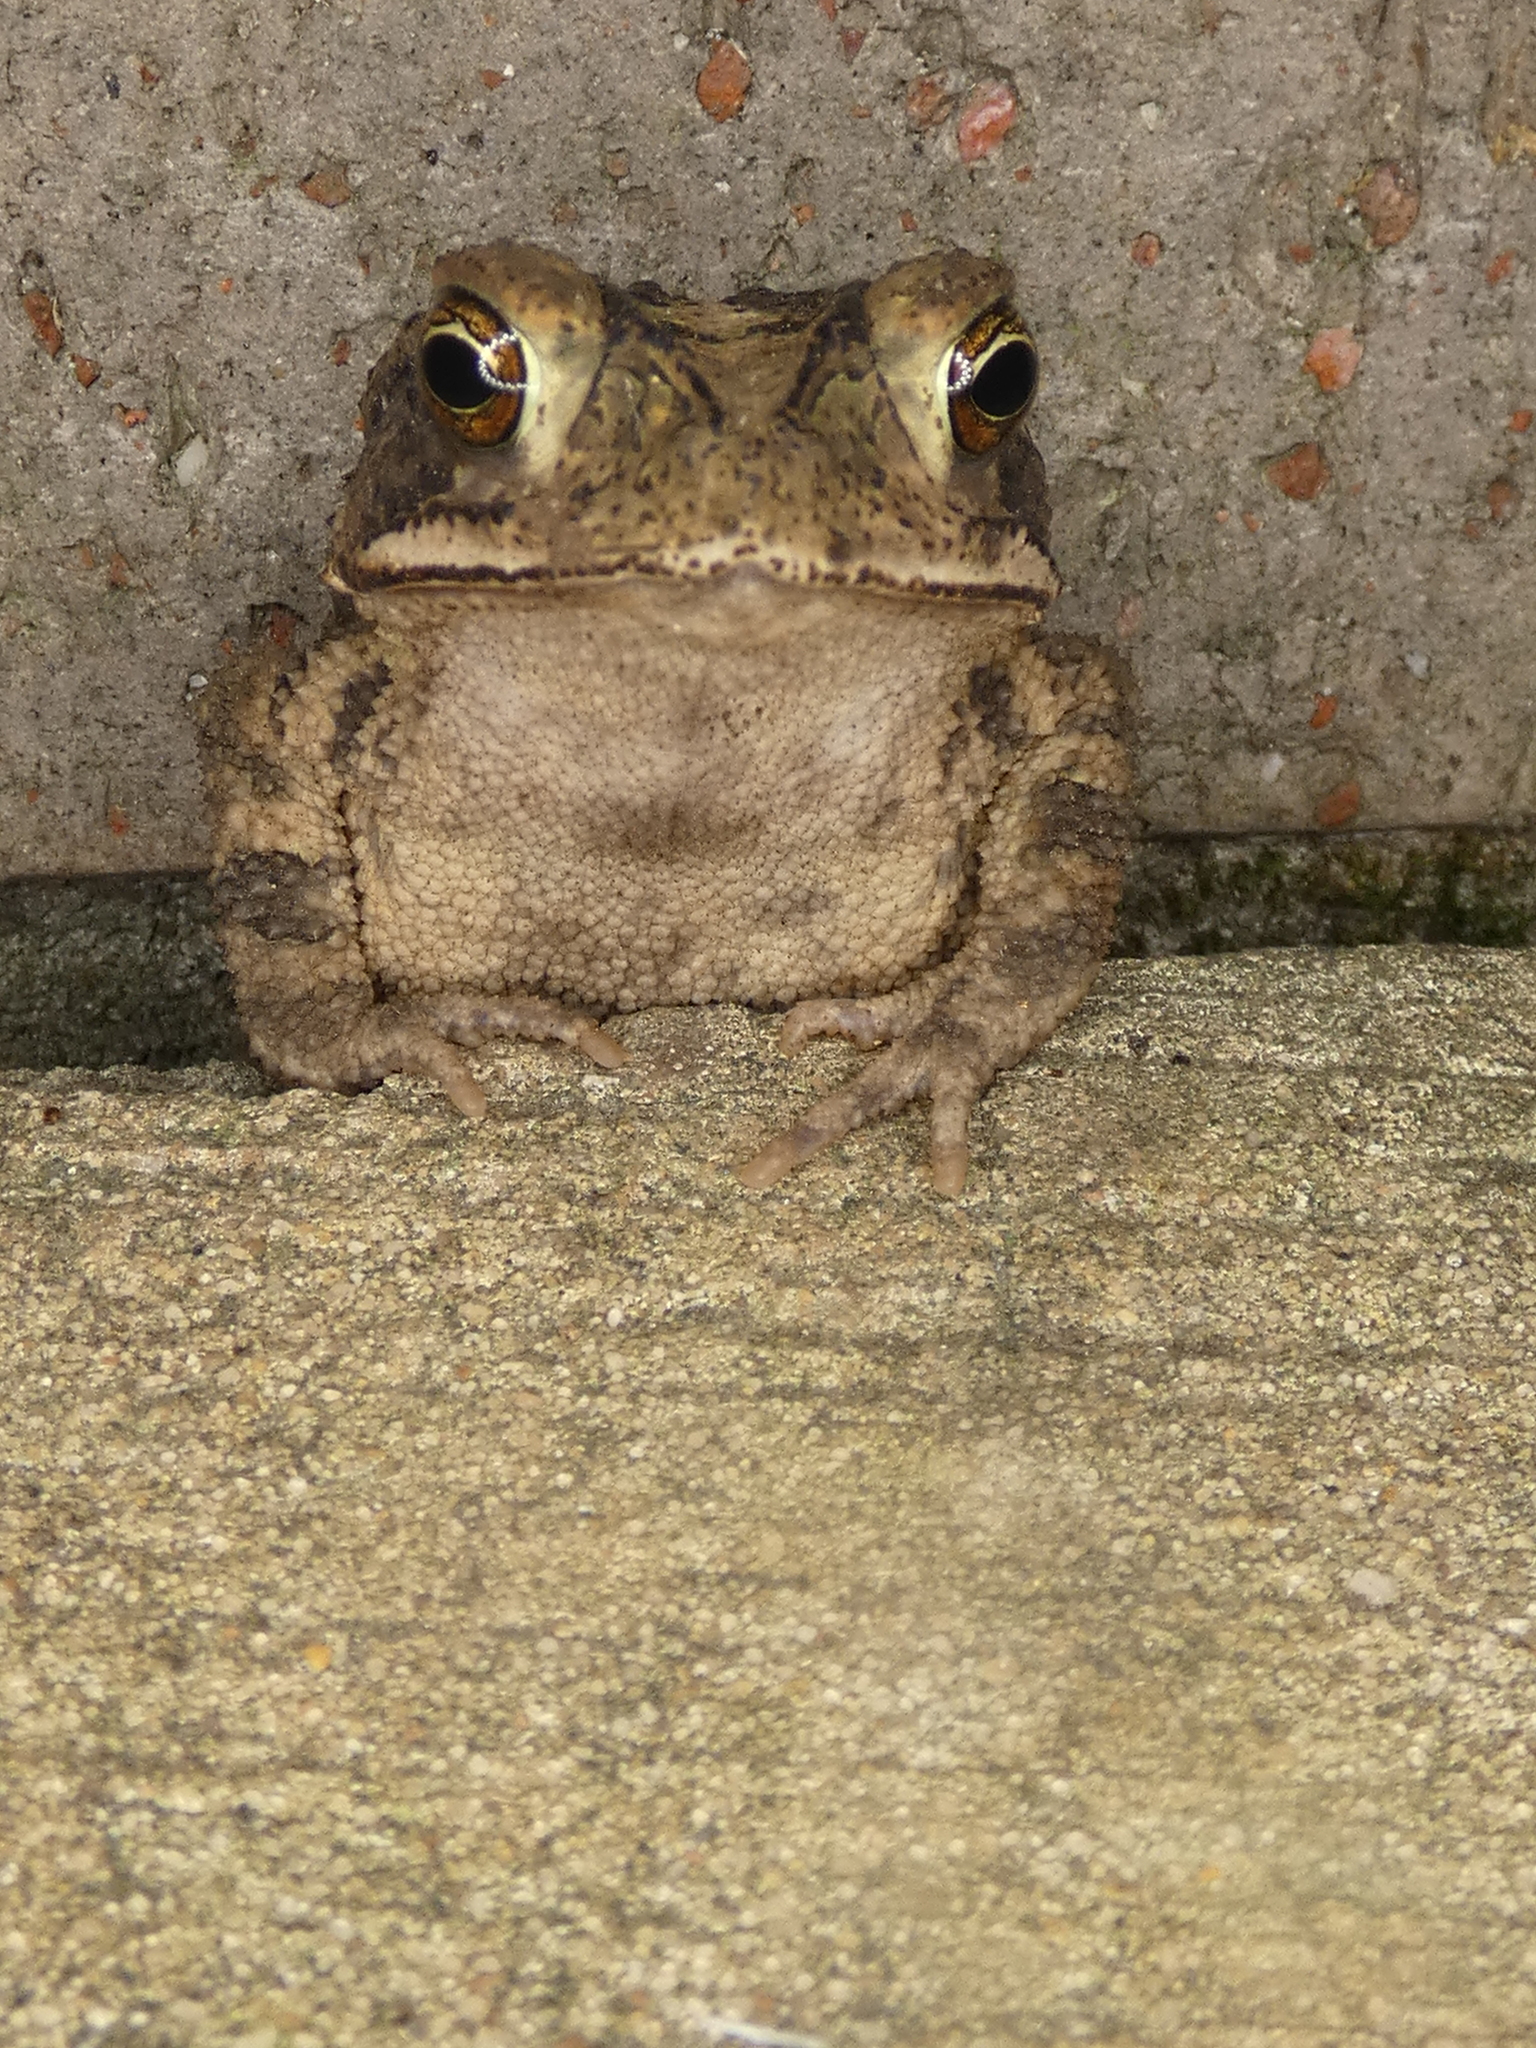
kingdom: Animalia
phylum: Chordata
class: Amphibia
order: Anura
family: Bufonidae
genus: Incilius
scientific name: Incilius nebulifer
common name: Gulf coast toad
